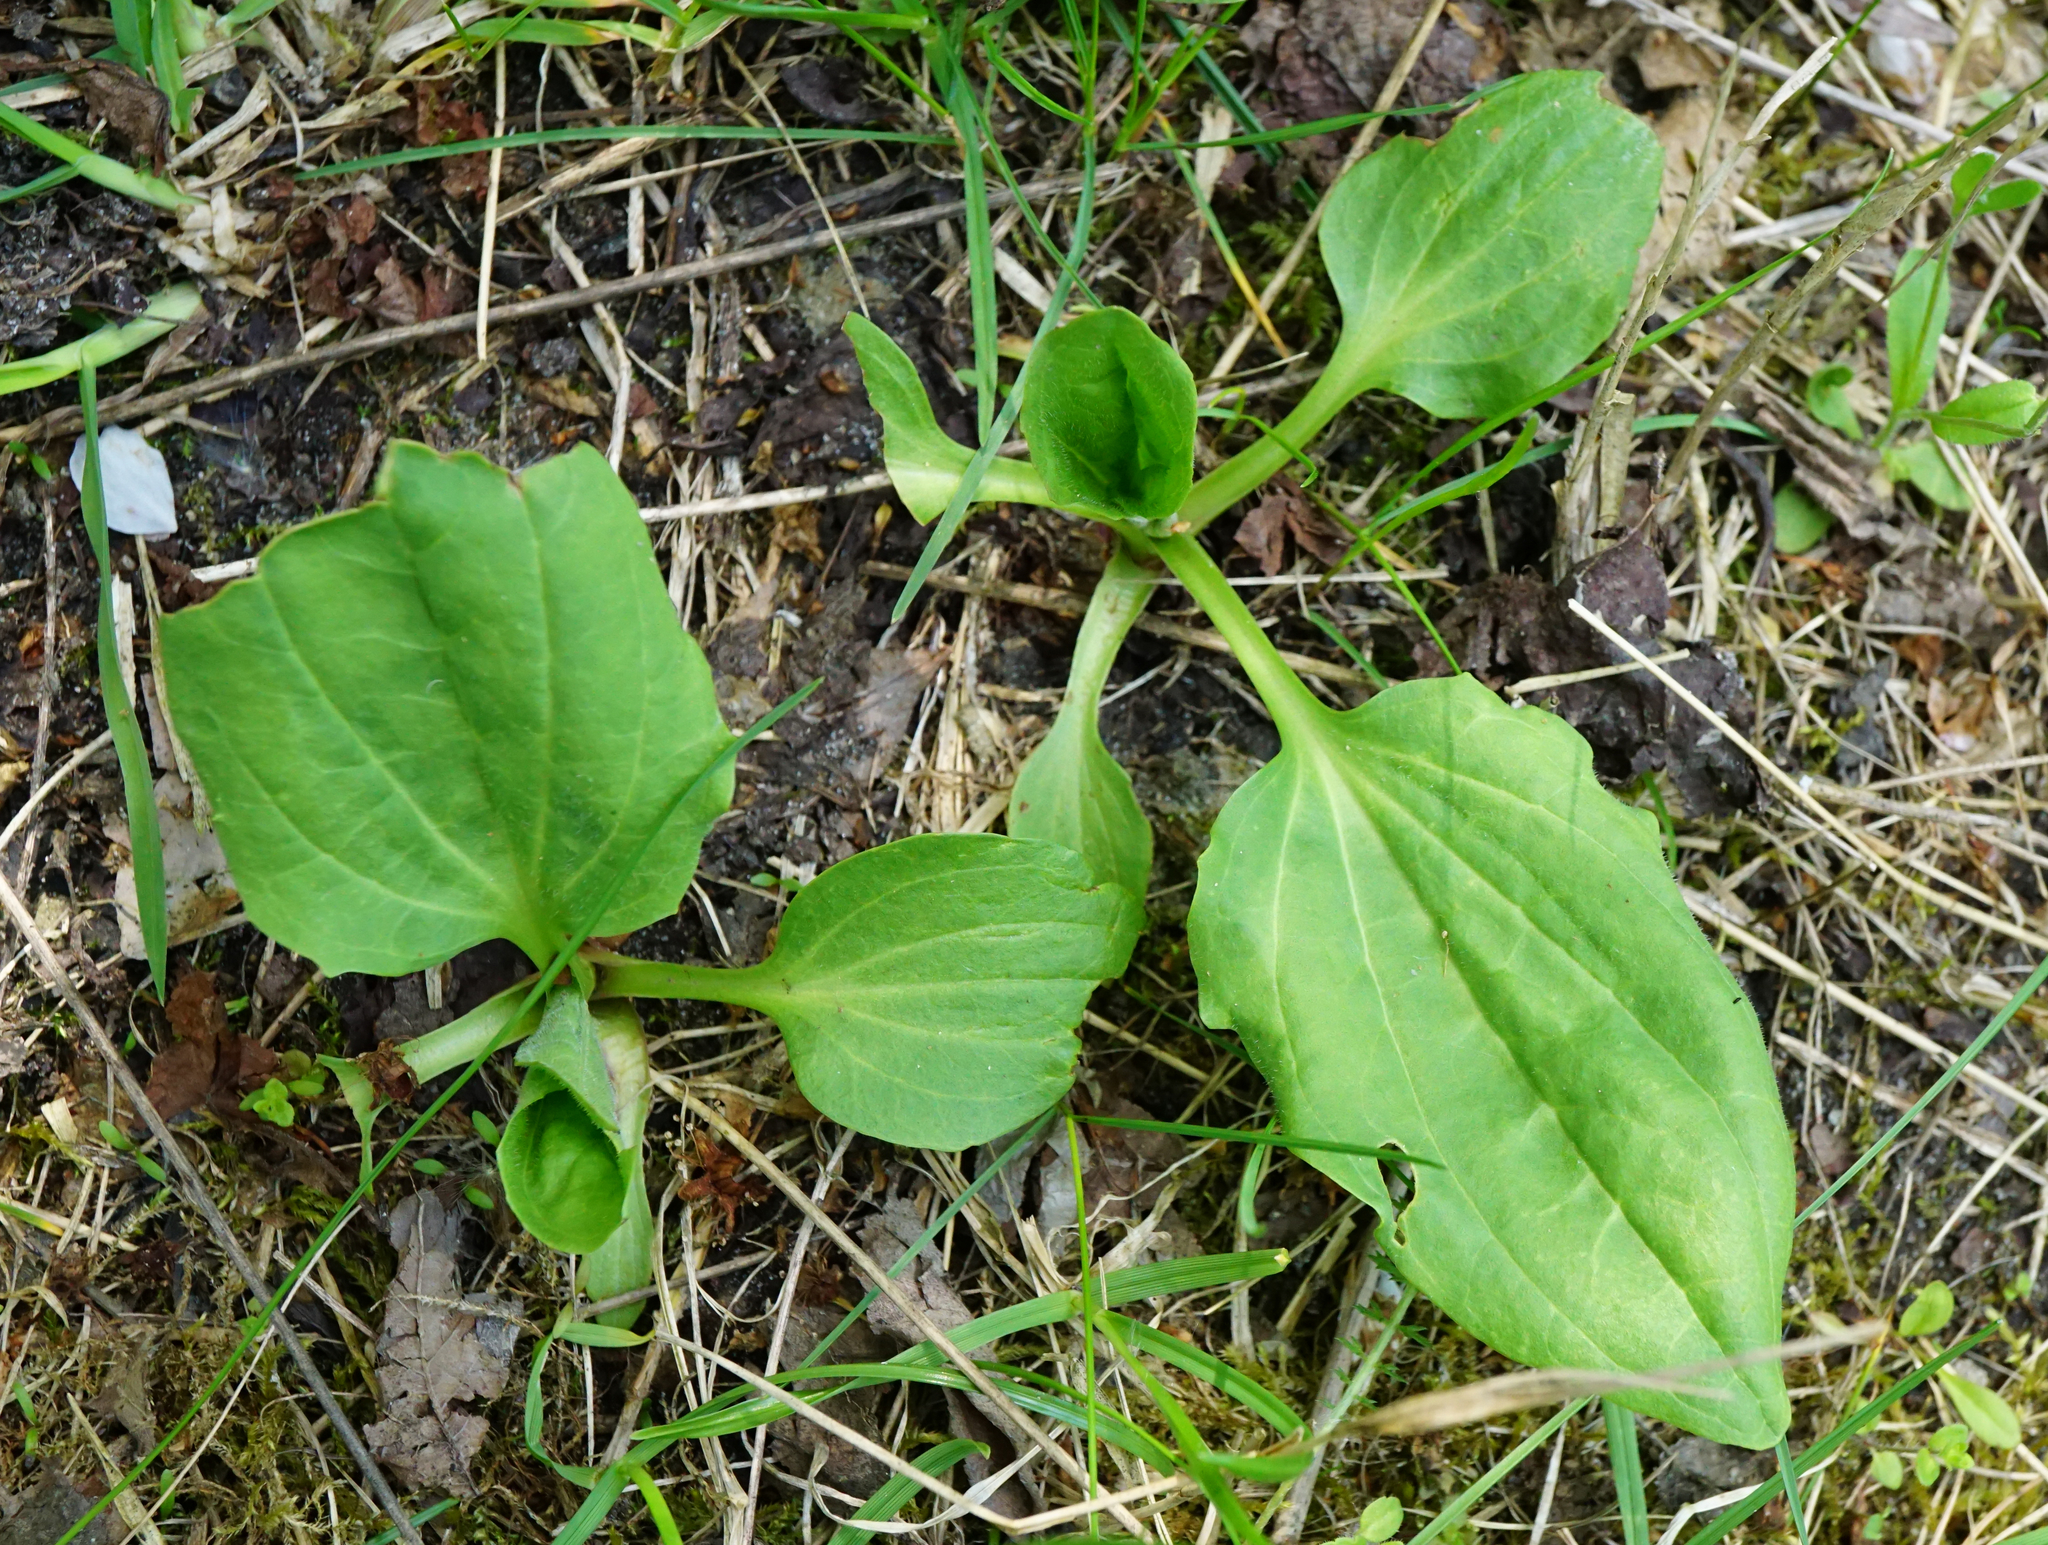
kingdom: Plantae
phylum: Tracheophyta
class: Magnoliopsida
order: Lamiales
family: Plantaginaceae
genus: Plantago
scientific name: Plantago major
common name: Common plantain
